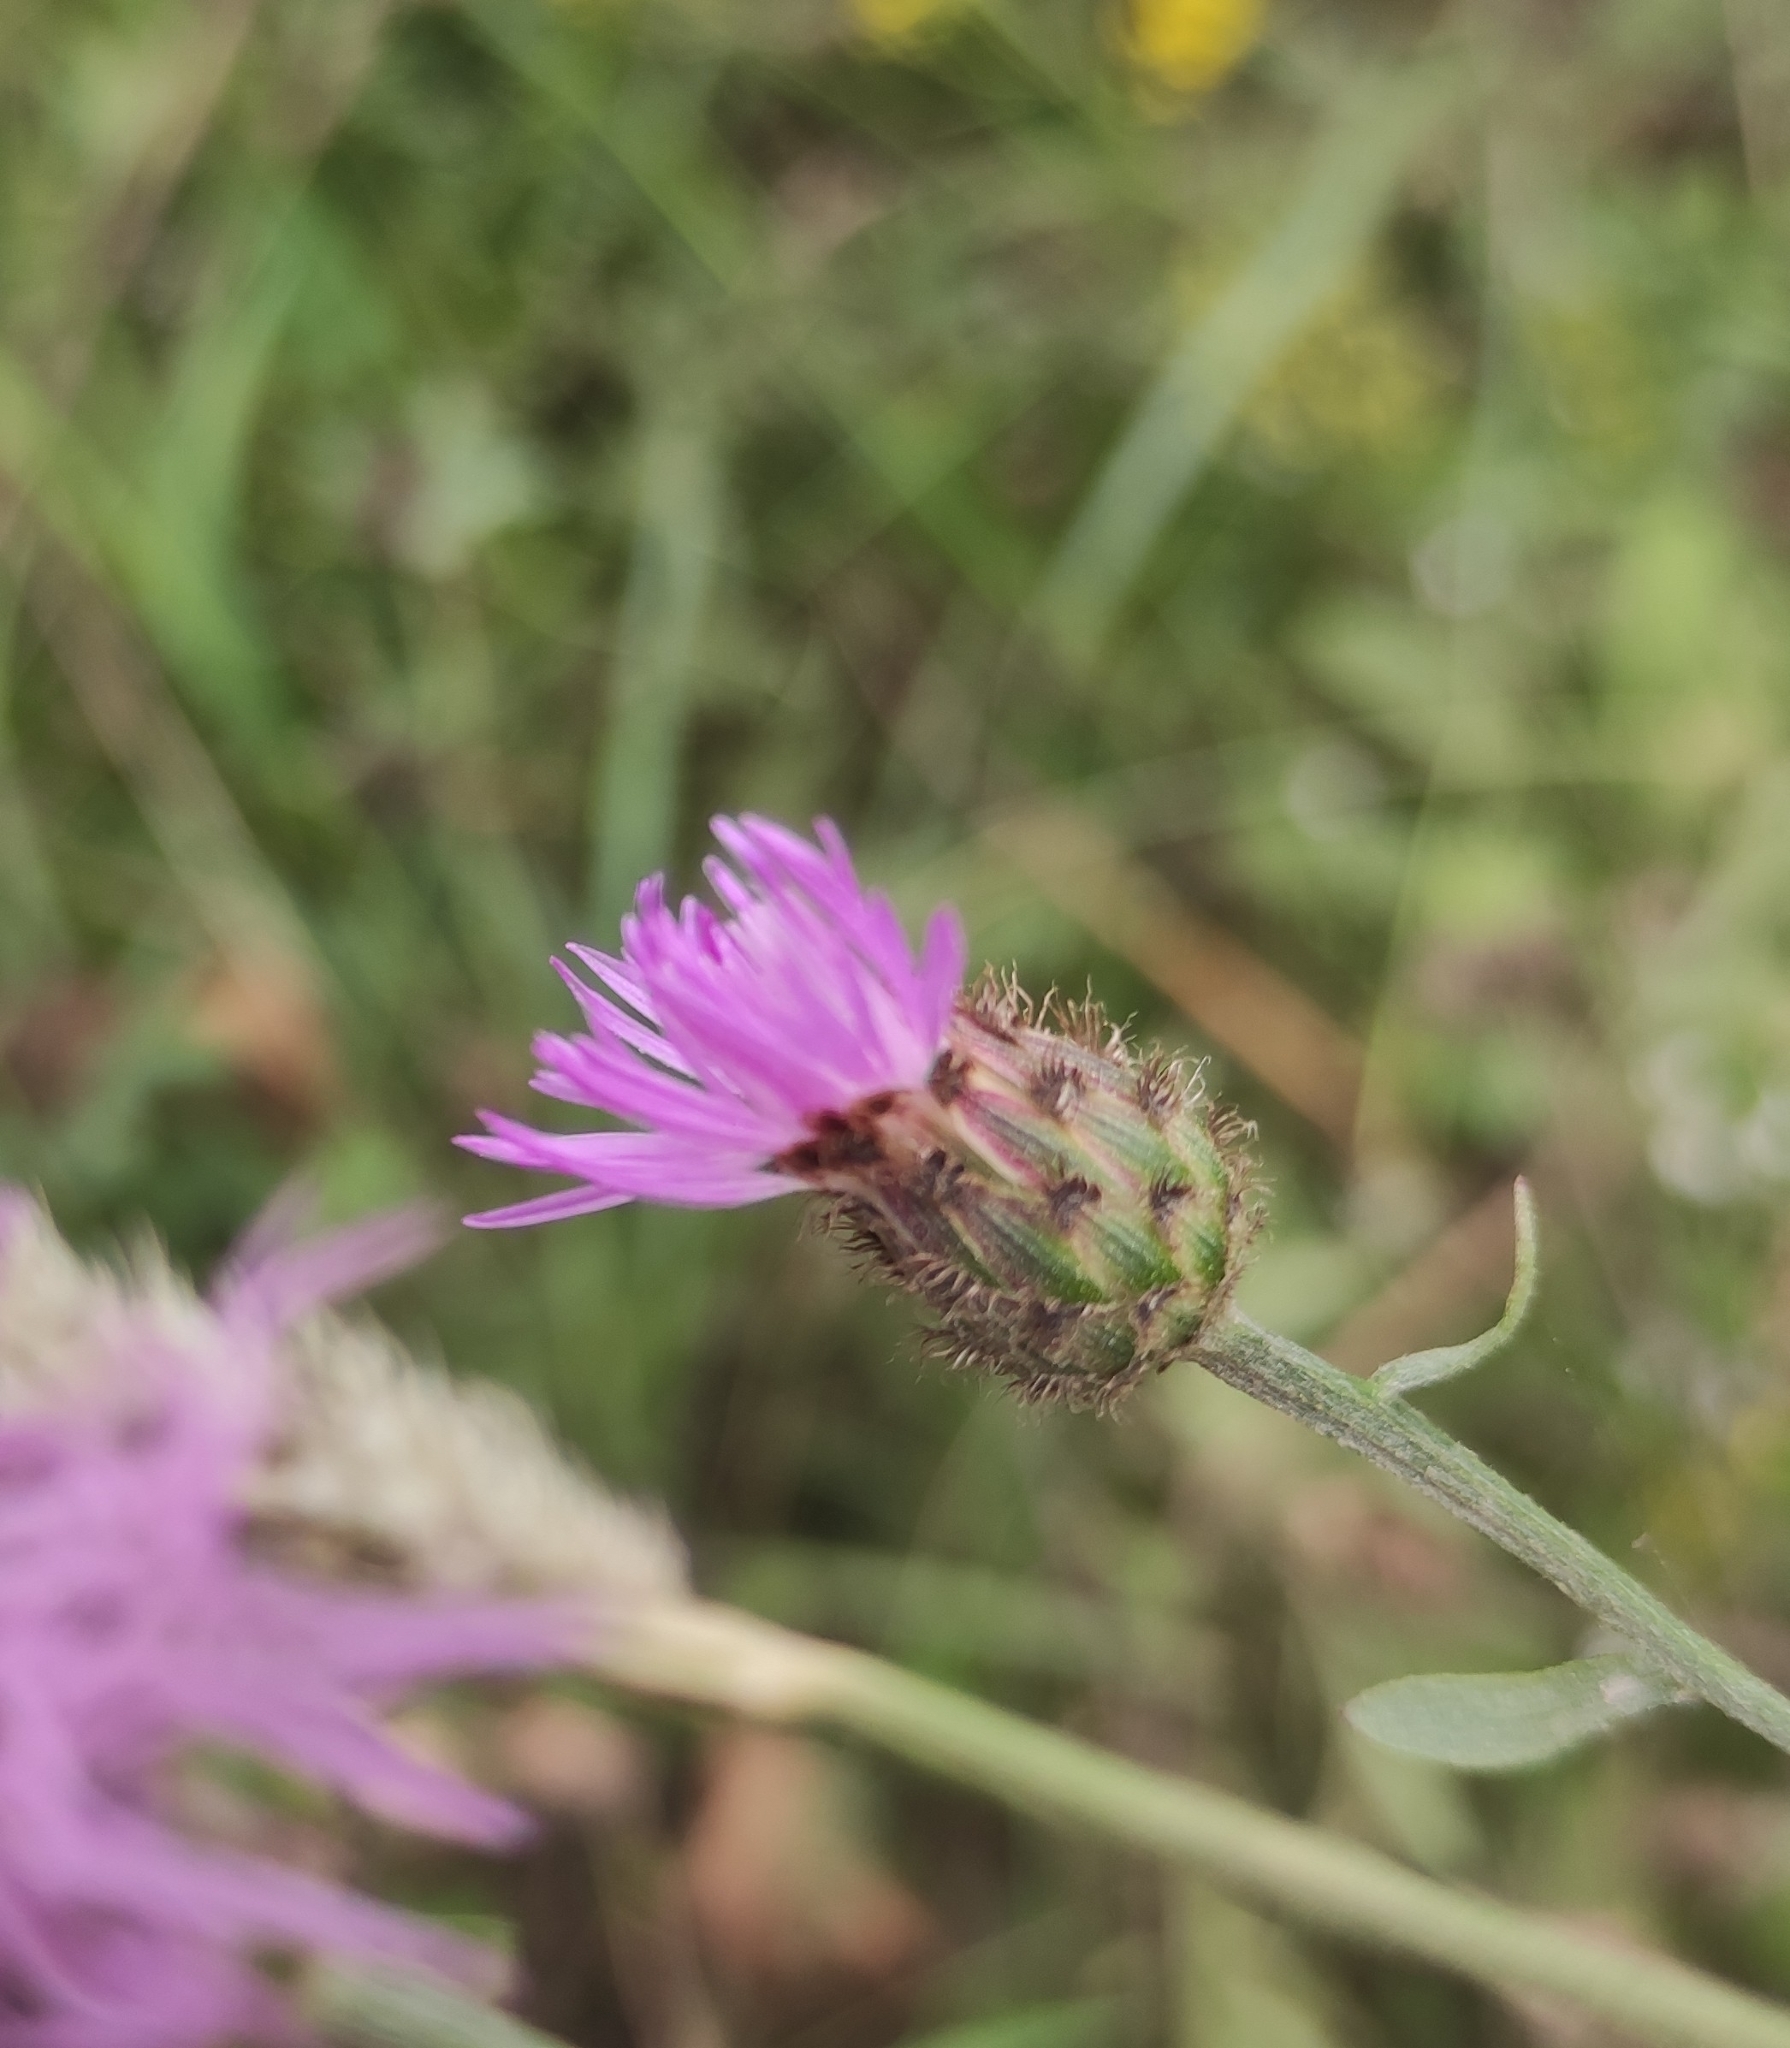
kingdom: Plantae
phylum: Tracheophyta
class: Magnoliopsida
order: Asterales
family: Asteraceae
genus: Centaurea
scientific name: Centaurea stoebe
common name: Spotted knapweed
